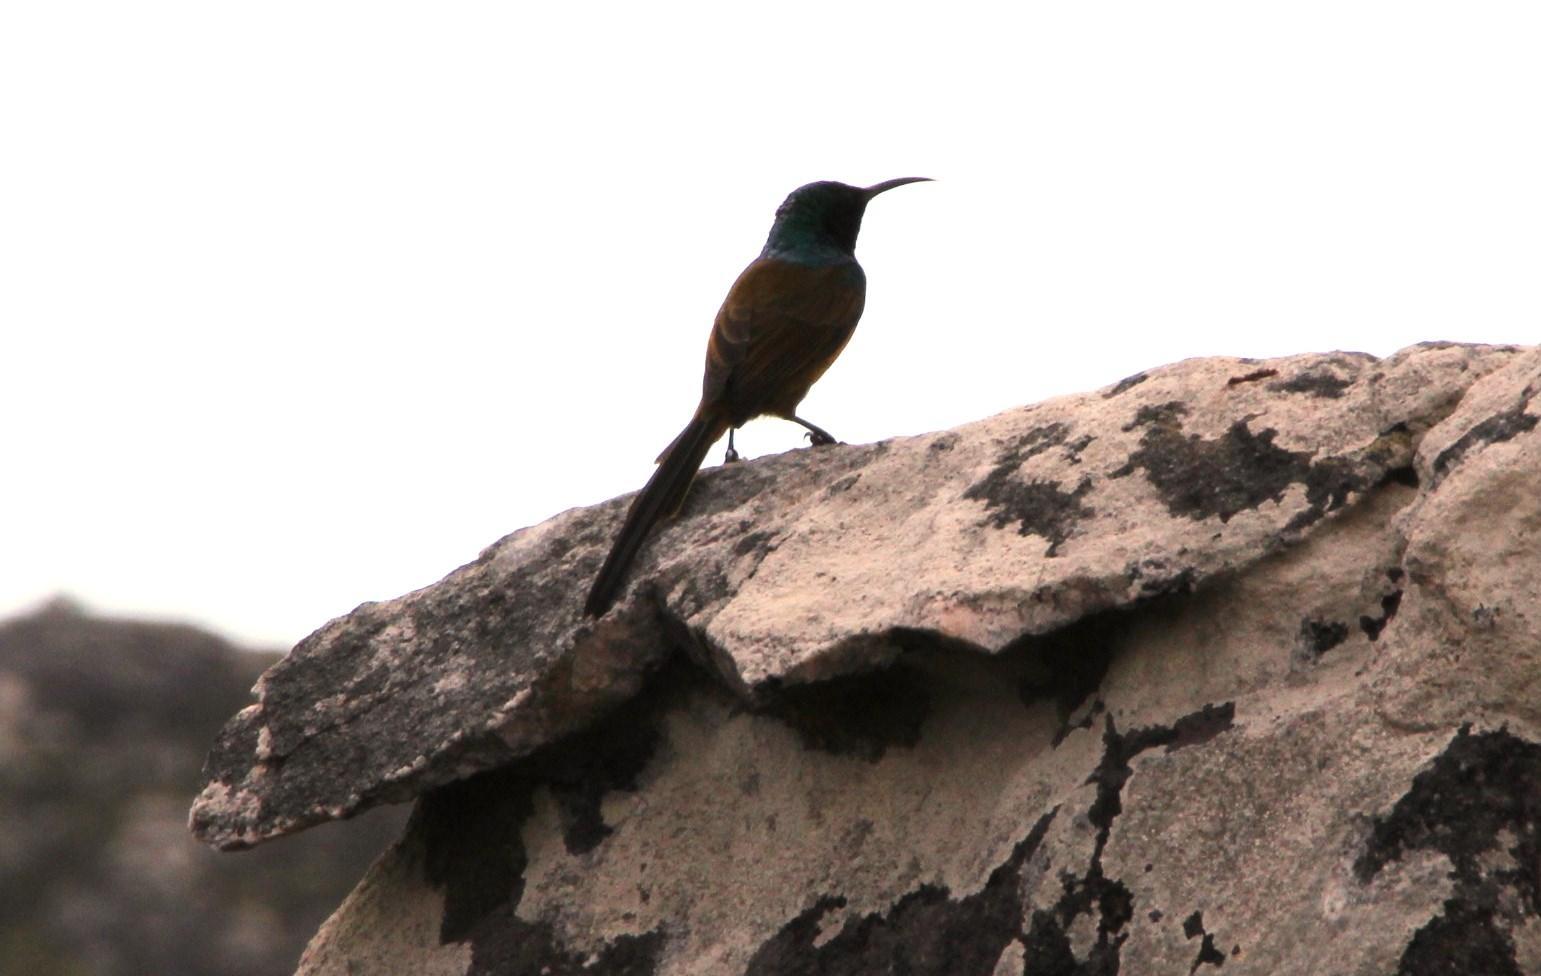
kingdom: Animalia
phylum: Chordata
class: Aves
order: Passeriformes
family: Nectariniidae
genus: Anthobaphes
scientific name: Anthobaphes violacea
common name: Orange-breasted sunbird
